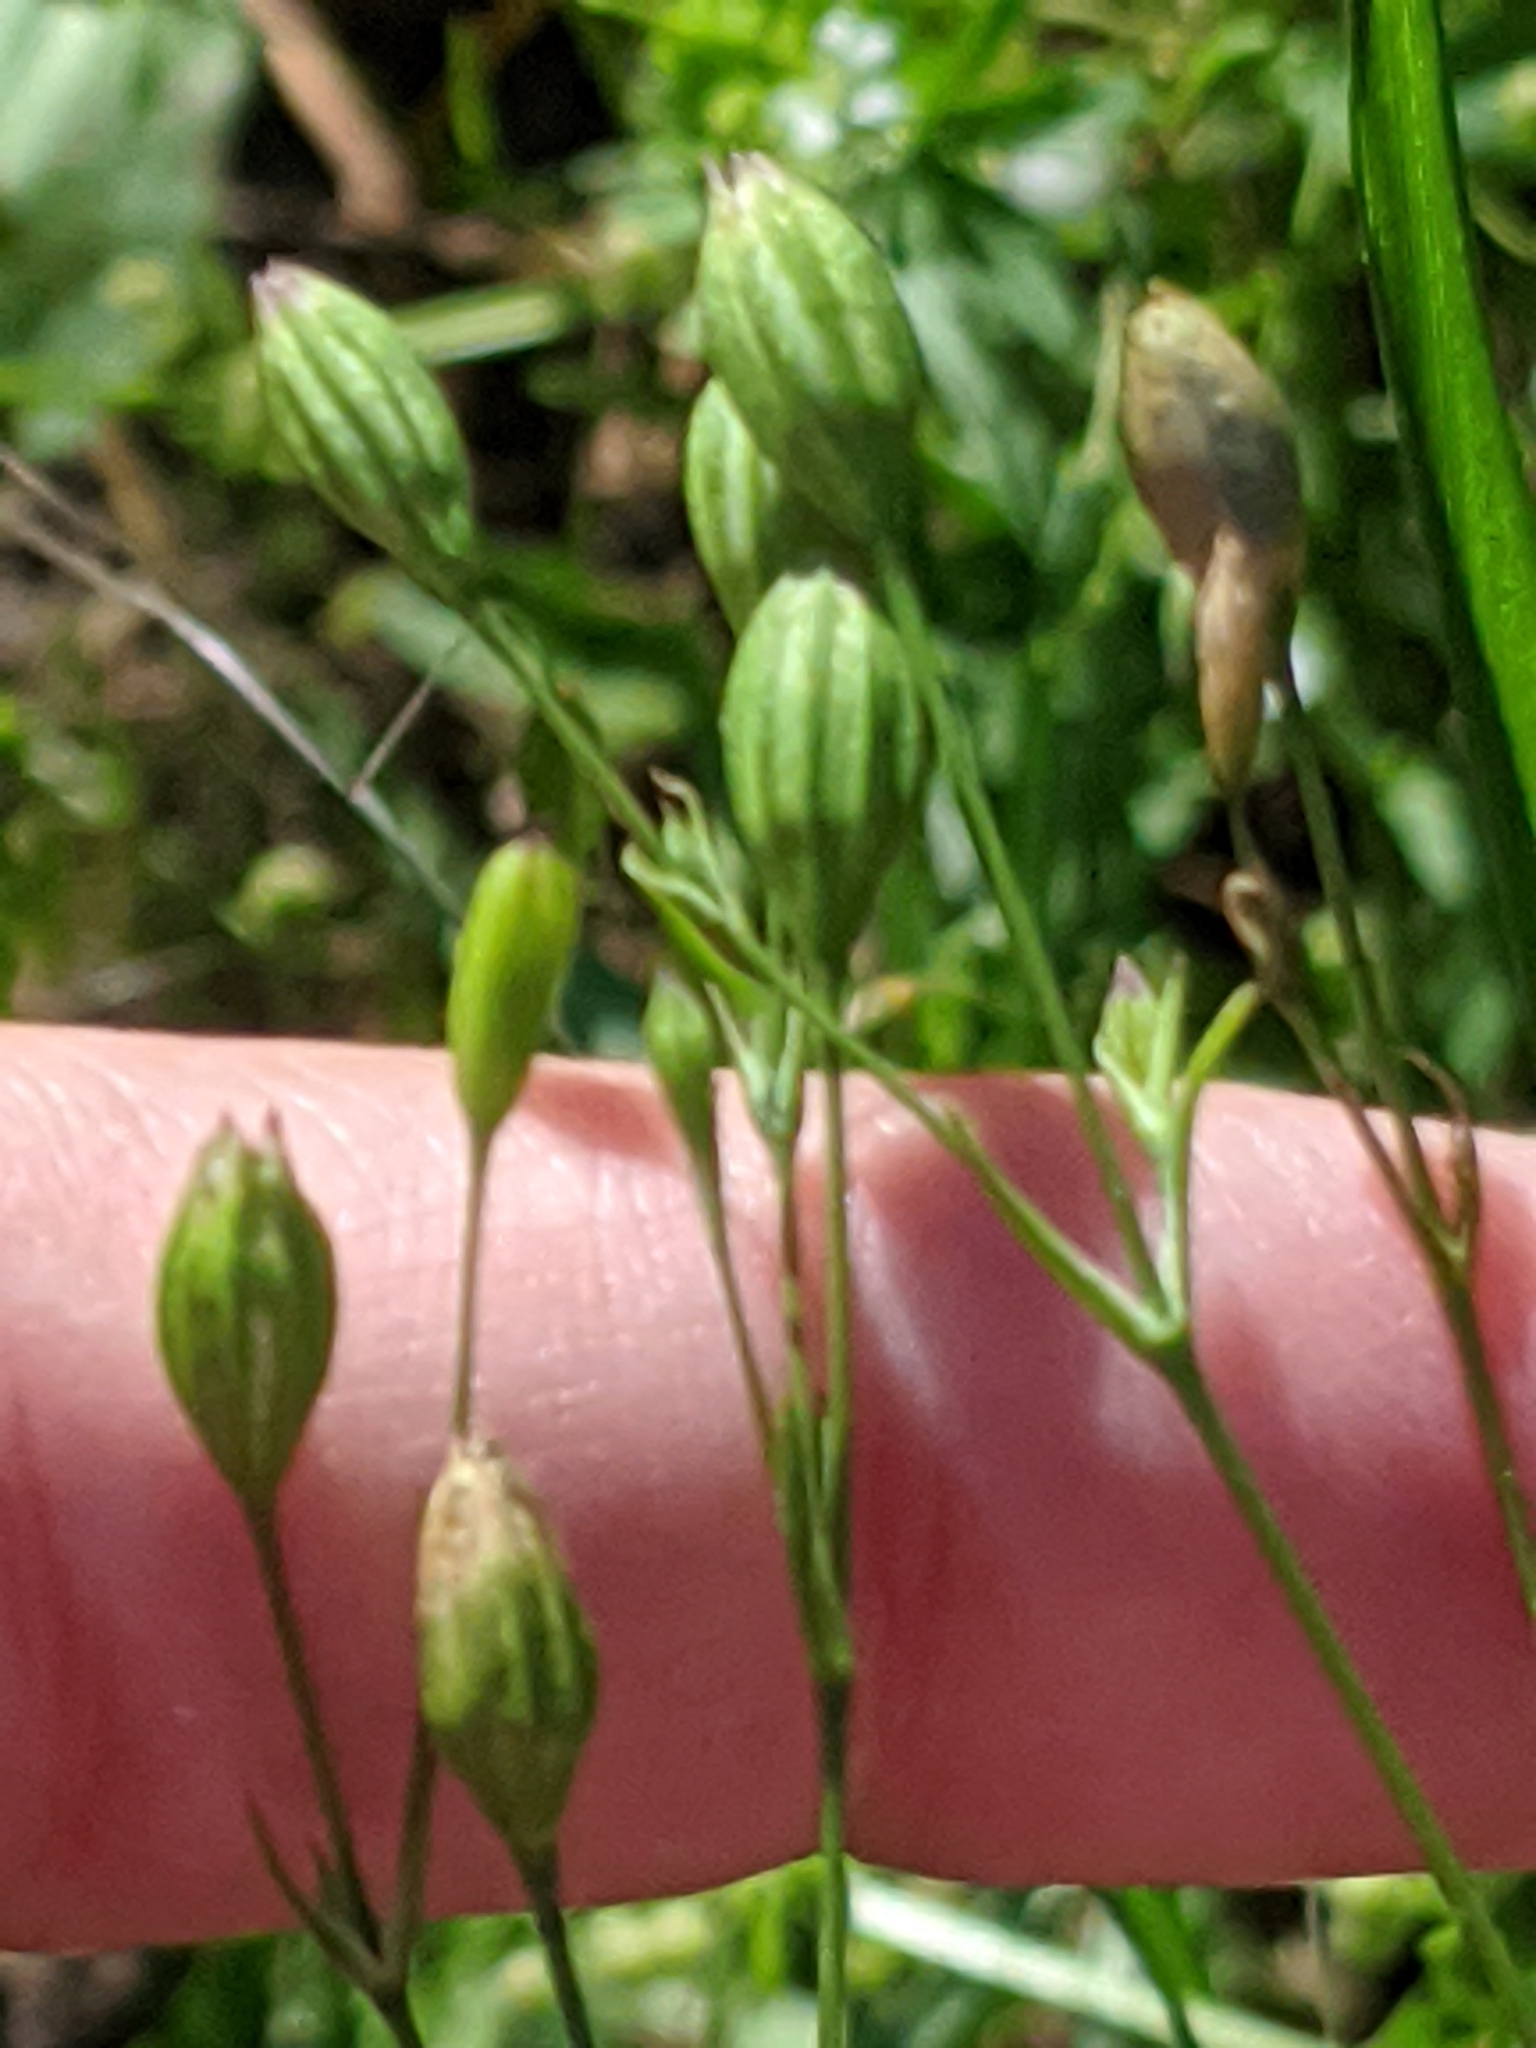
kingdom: Plantae
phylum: Tracheophyta
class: Magnoliopsida
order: Caryophyllales
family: Caryophyllaceae
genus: Silene
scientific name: Silene antirrhina
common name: Sleepy catchfly
